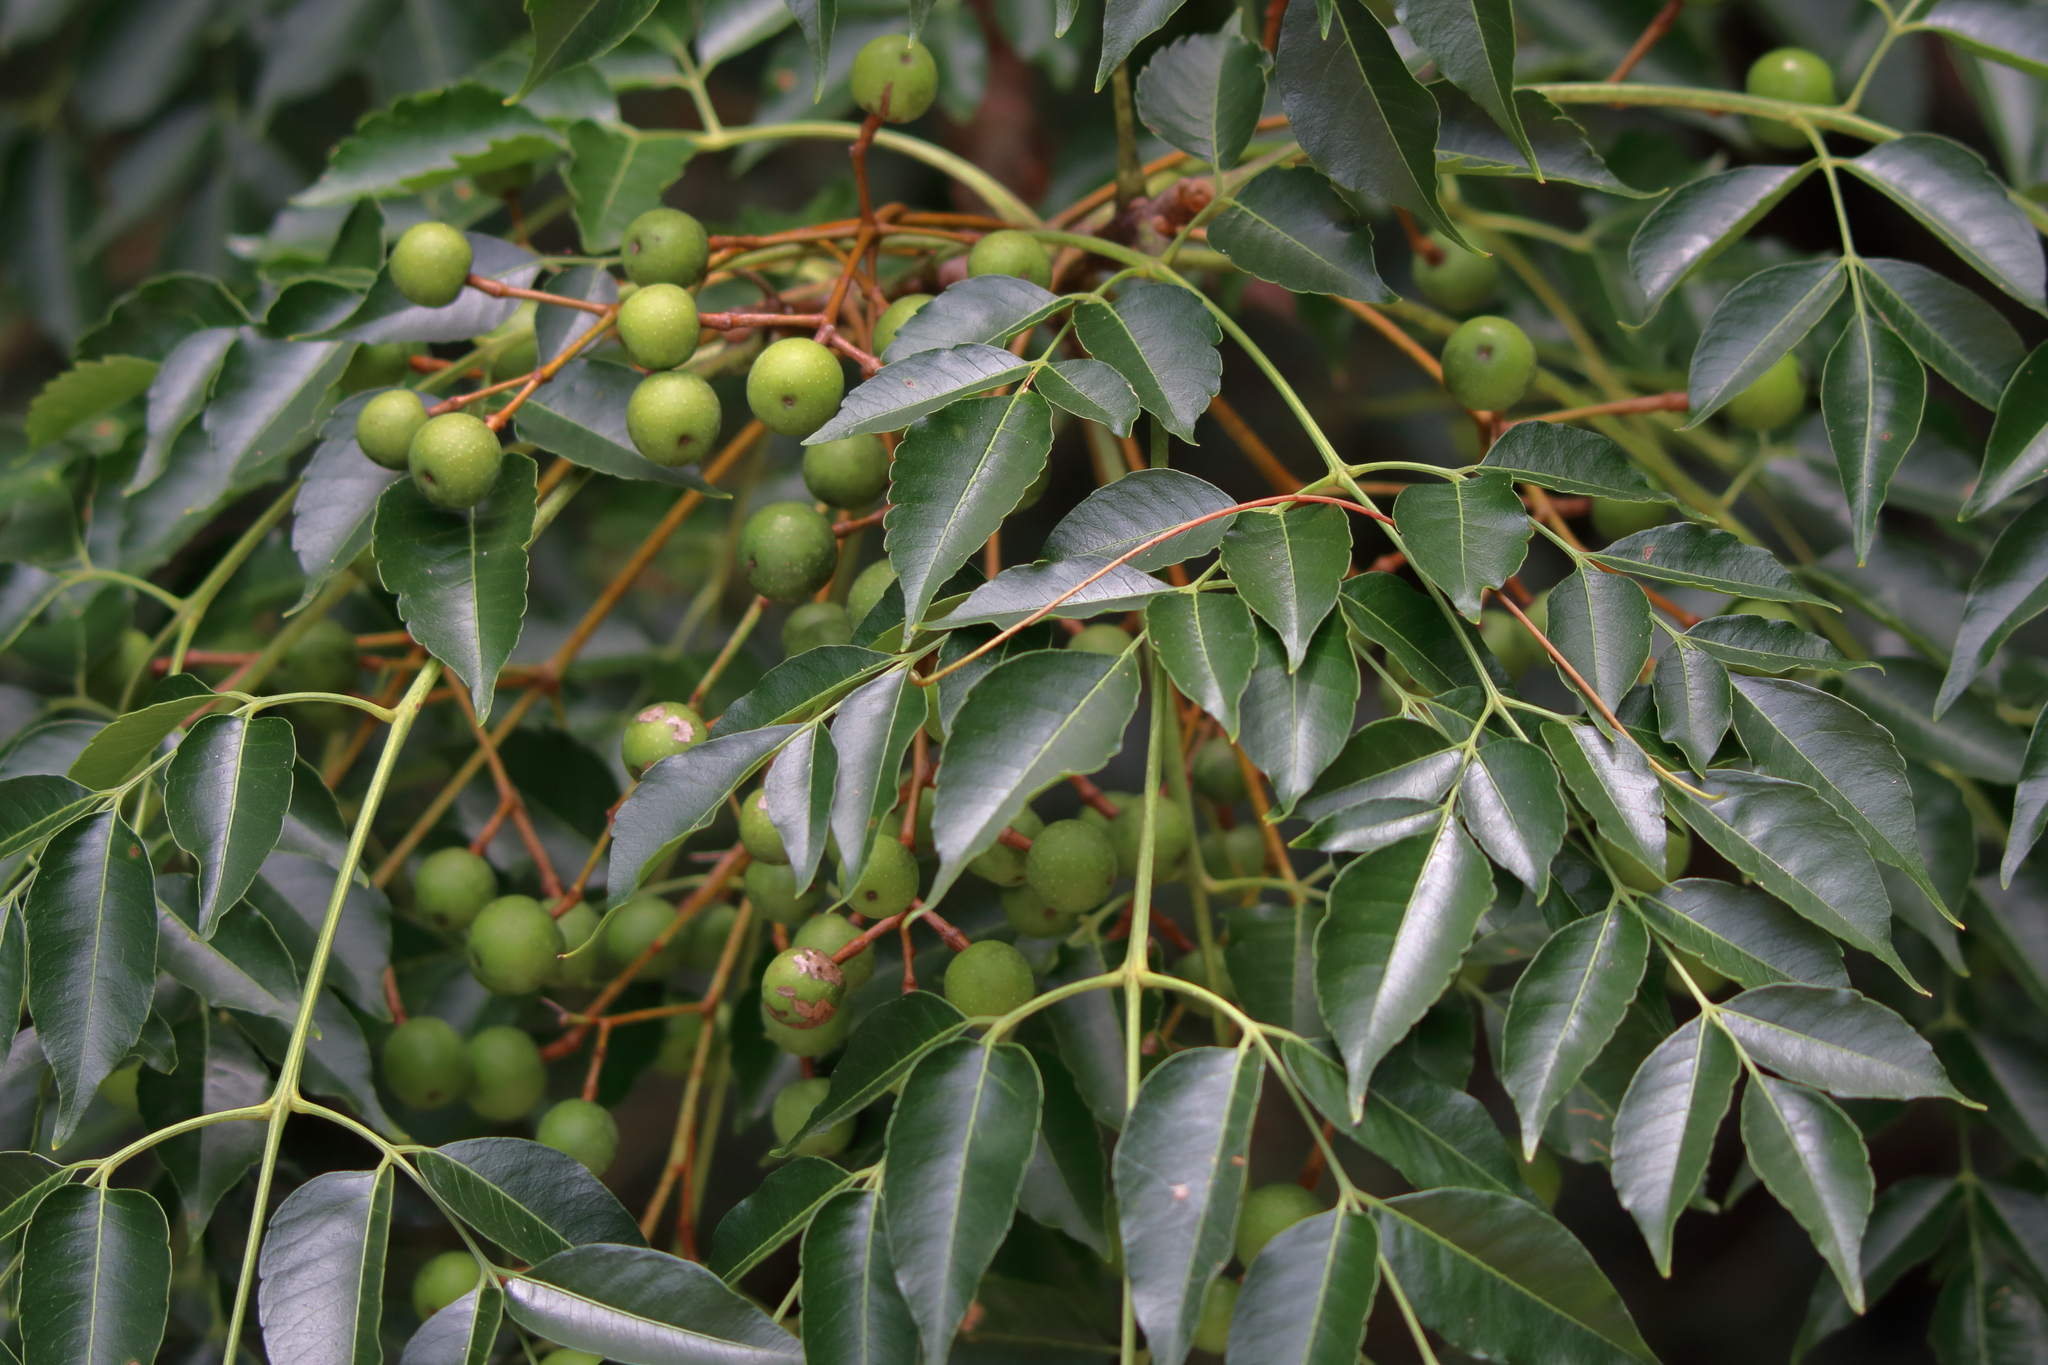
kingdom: Plantae
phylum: Tracheophyta
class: Magnoliopsida
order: Sapindales
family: Meliaceae
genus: Melia
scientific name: Melia azedarach
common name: Chinaberrytree
